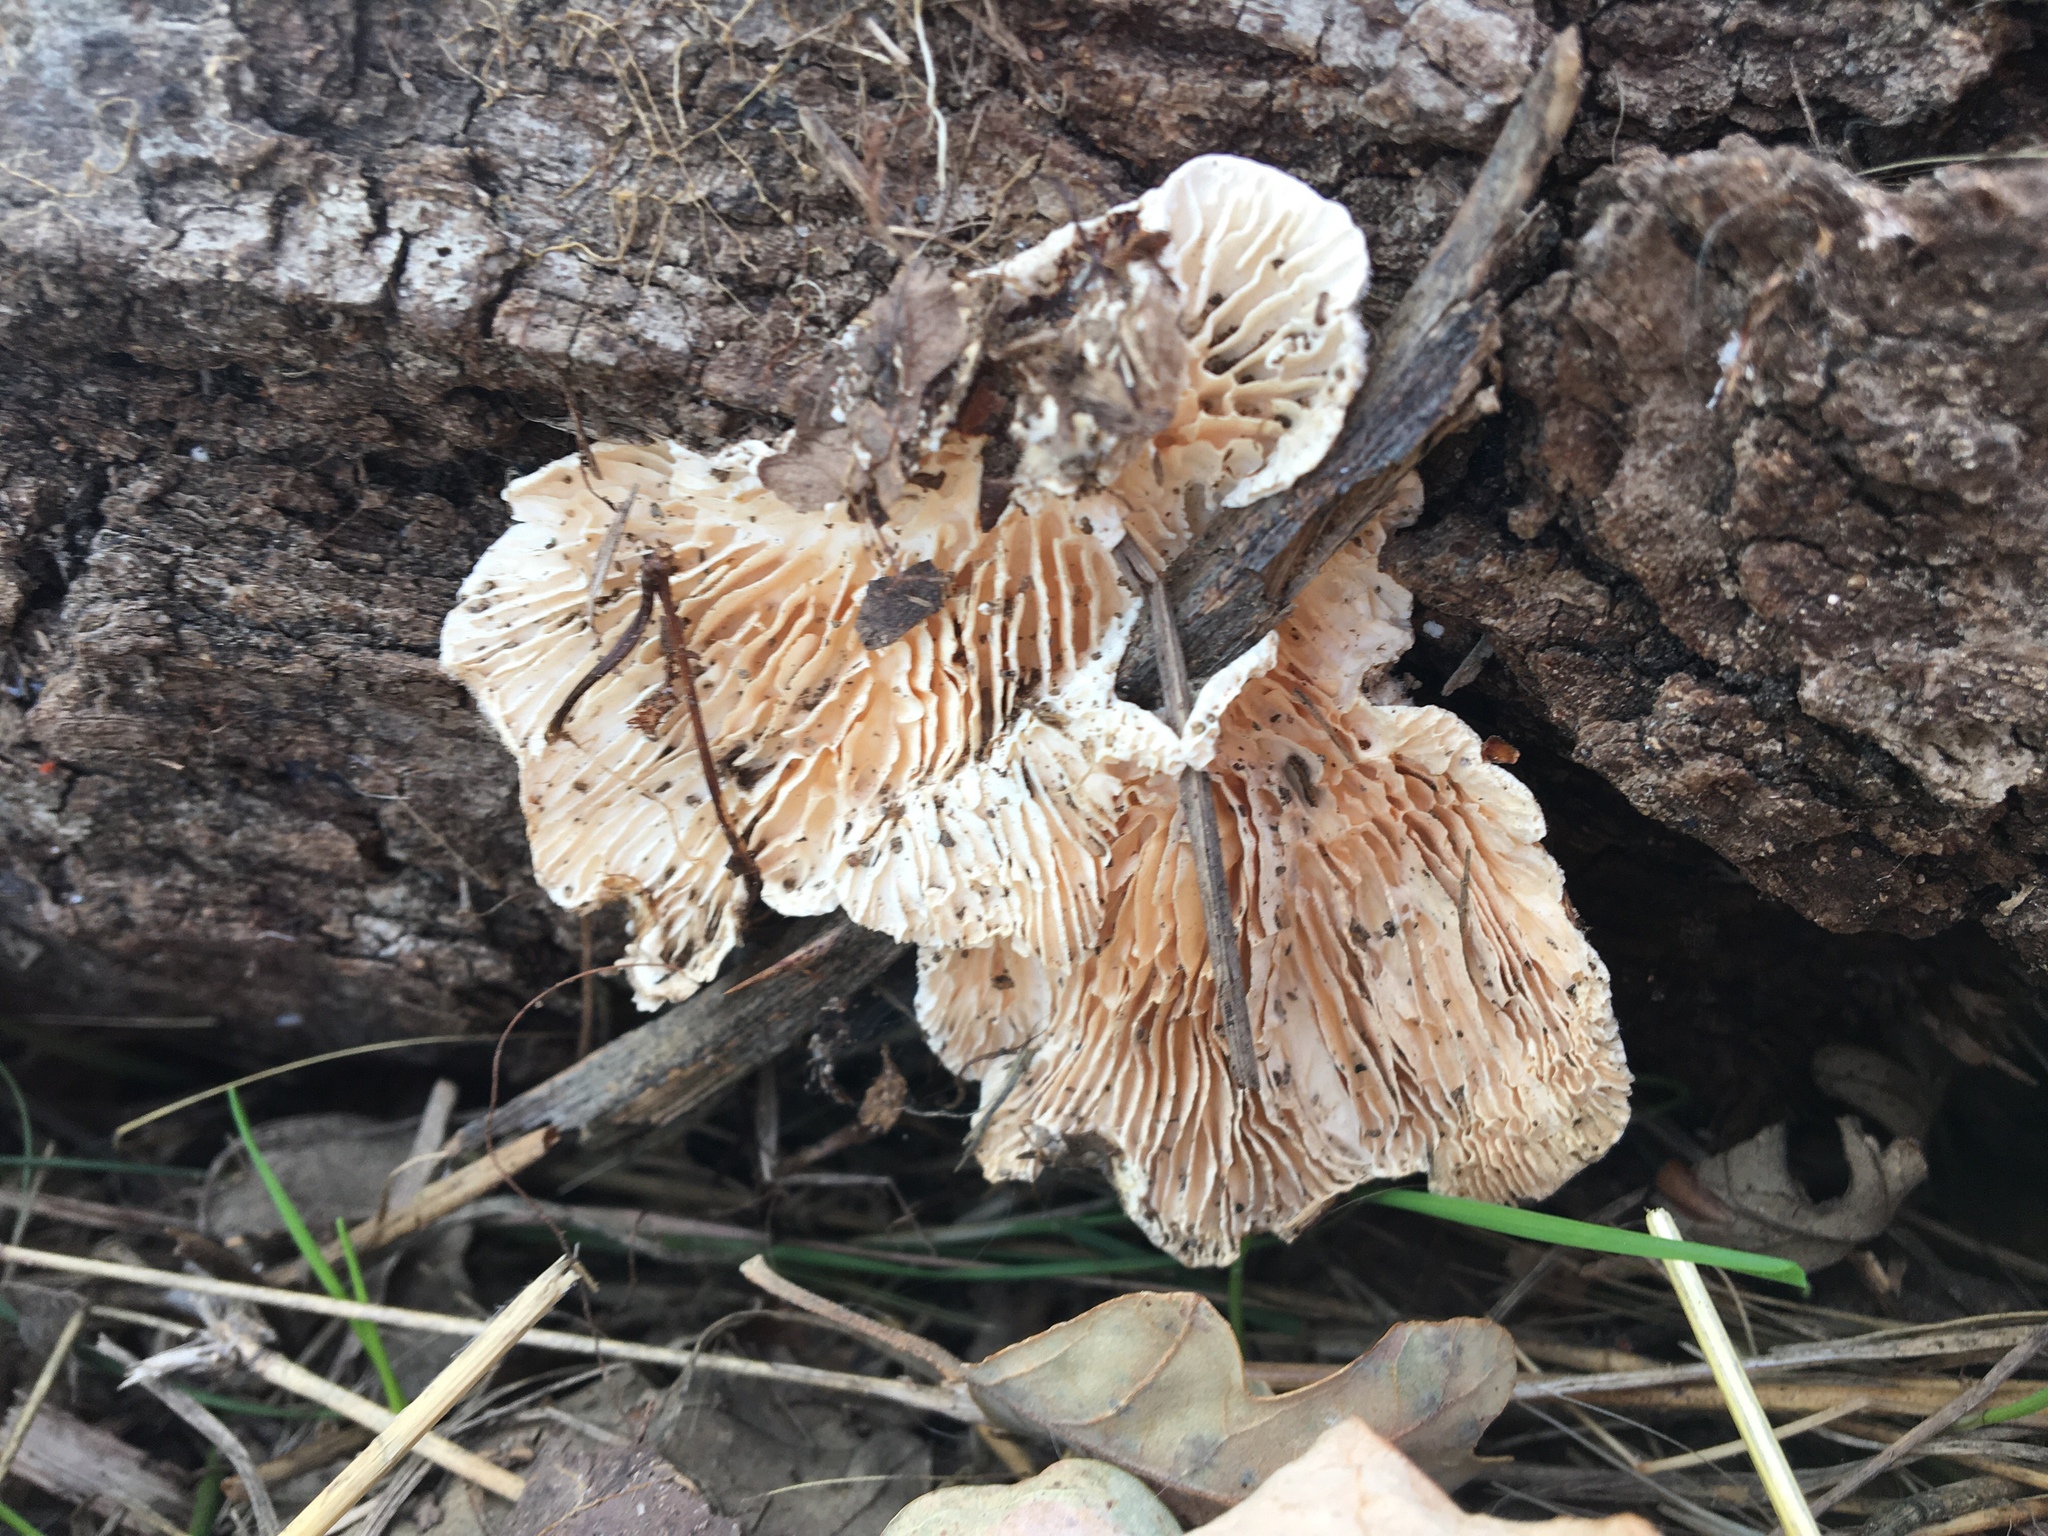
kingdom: Fungi
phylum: Basidiomycota
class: Agaricomycetes
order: Polyporales
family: Polyporaceae
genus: Lenzites
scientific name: Lenzites betulinus
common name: Birch mazegill
